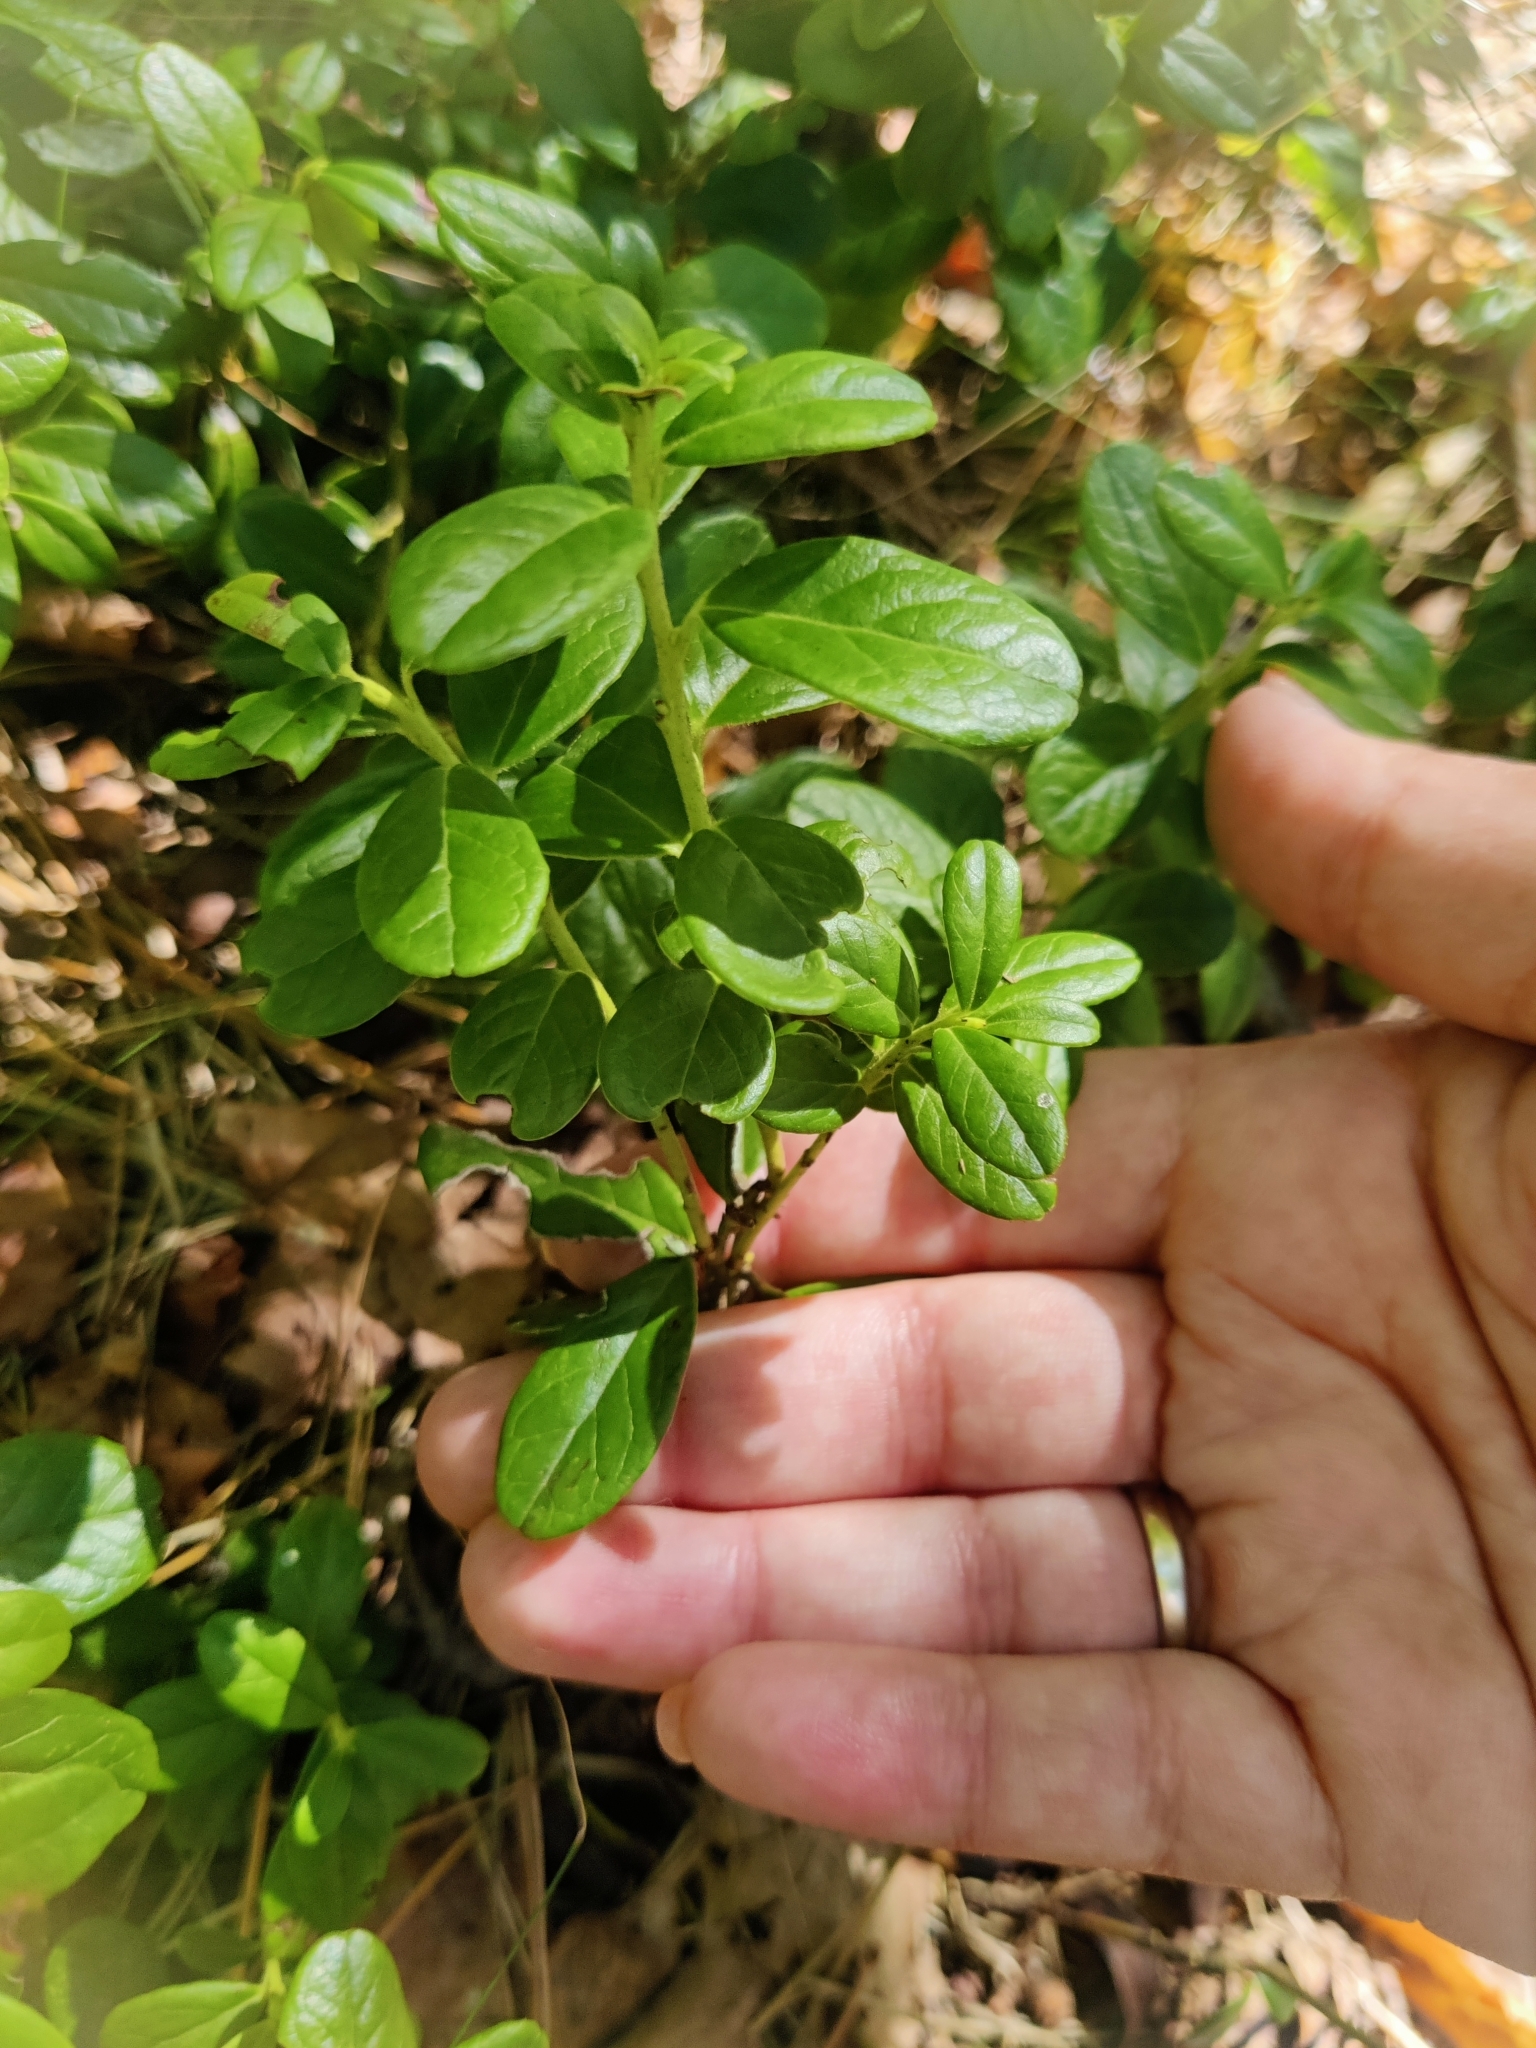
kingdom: Plantae
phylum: Tracheophyta
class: Magnoliopsida
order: Ericales
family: Ericaceae
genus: Vaccinium
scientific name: Vaccinium vitis-idaea
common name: Cowberry
